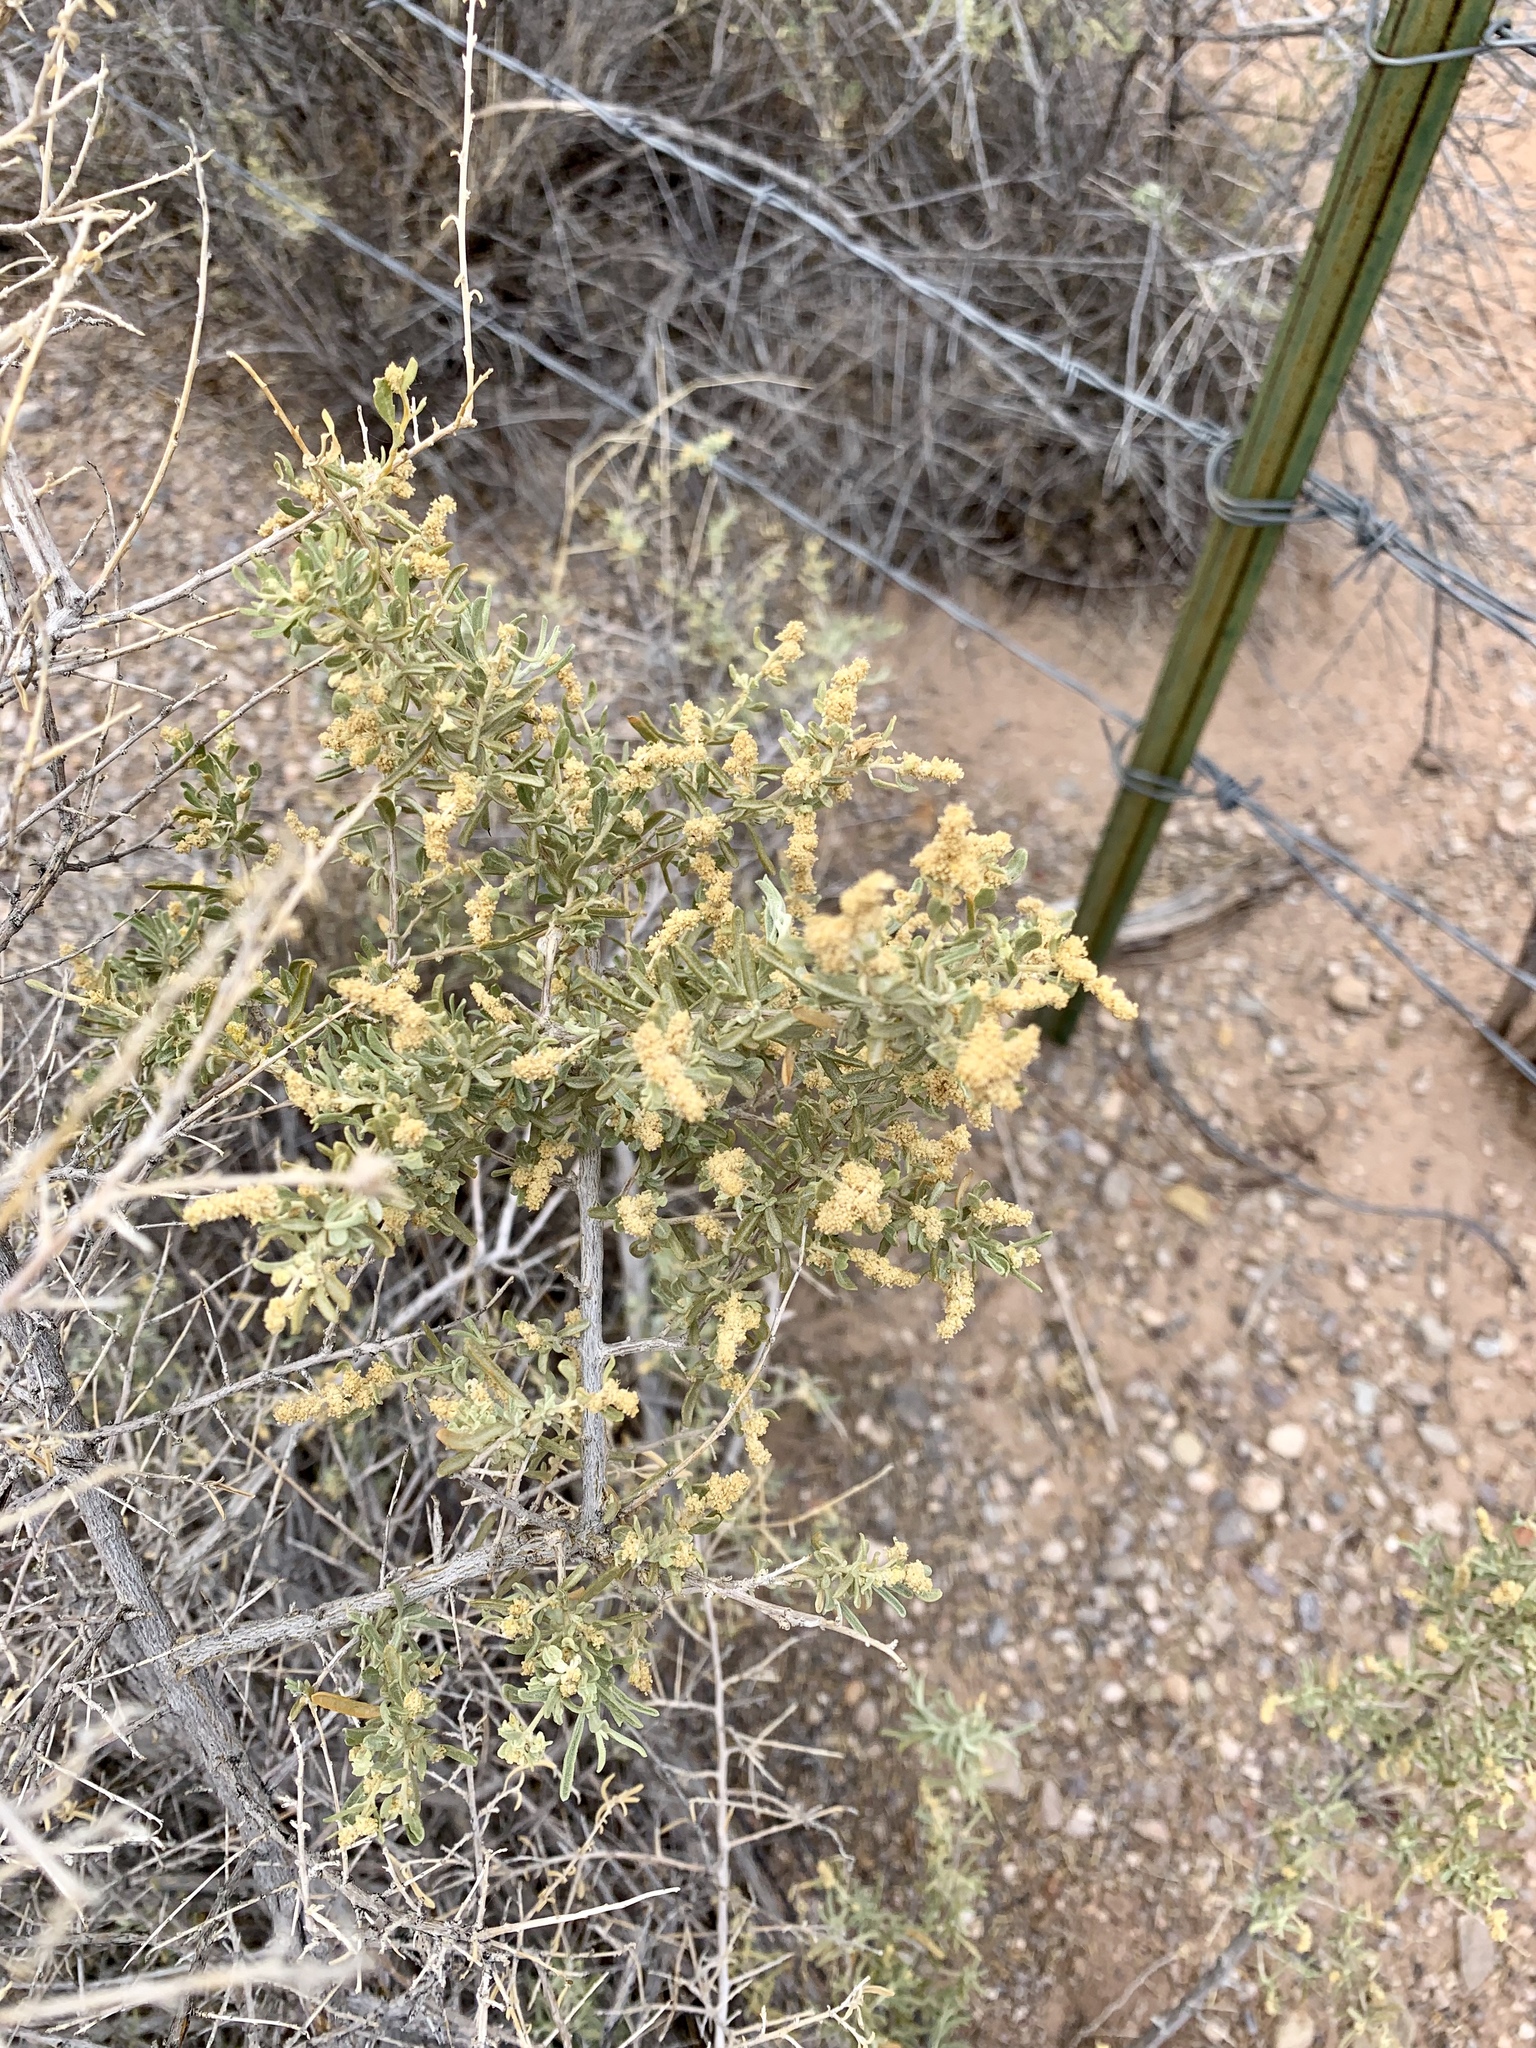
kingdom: Plantae
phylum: Tracheophyta
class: Magnoliopsida
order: Caryophyllales
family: Amaranthaceae
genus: Atriplex
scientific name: Atriplex canescens
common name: Four-wing saltbush
